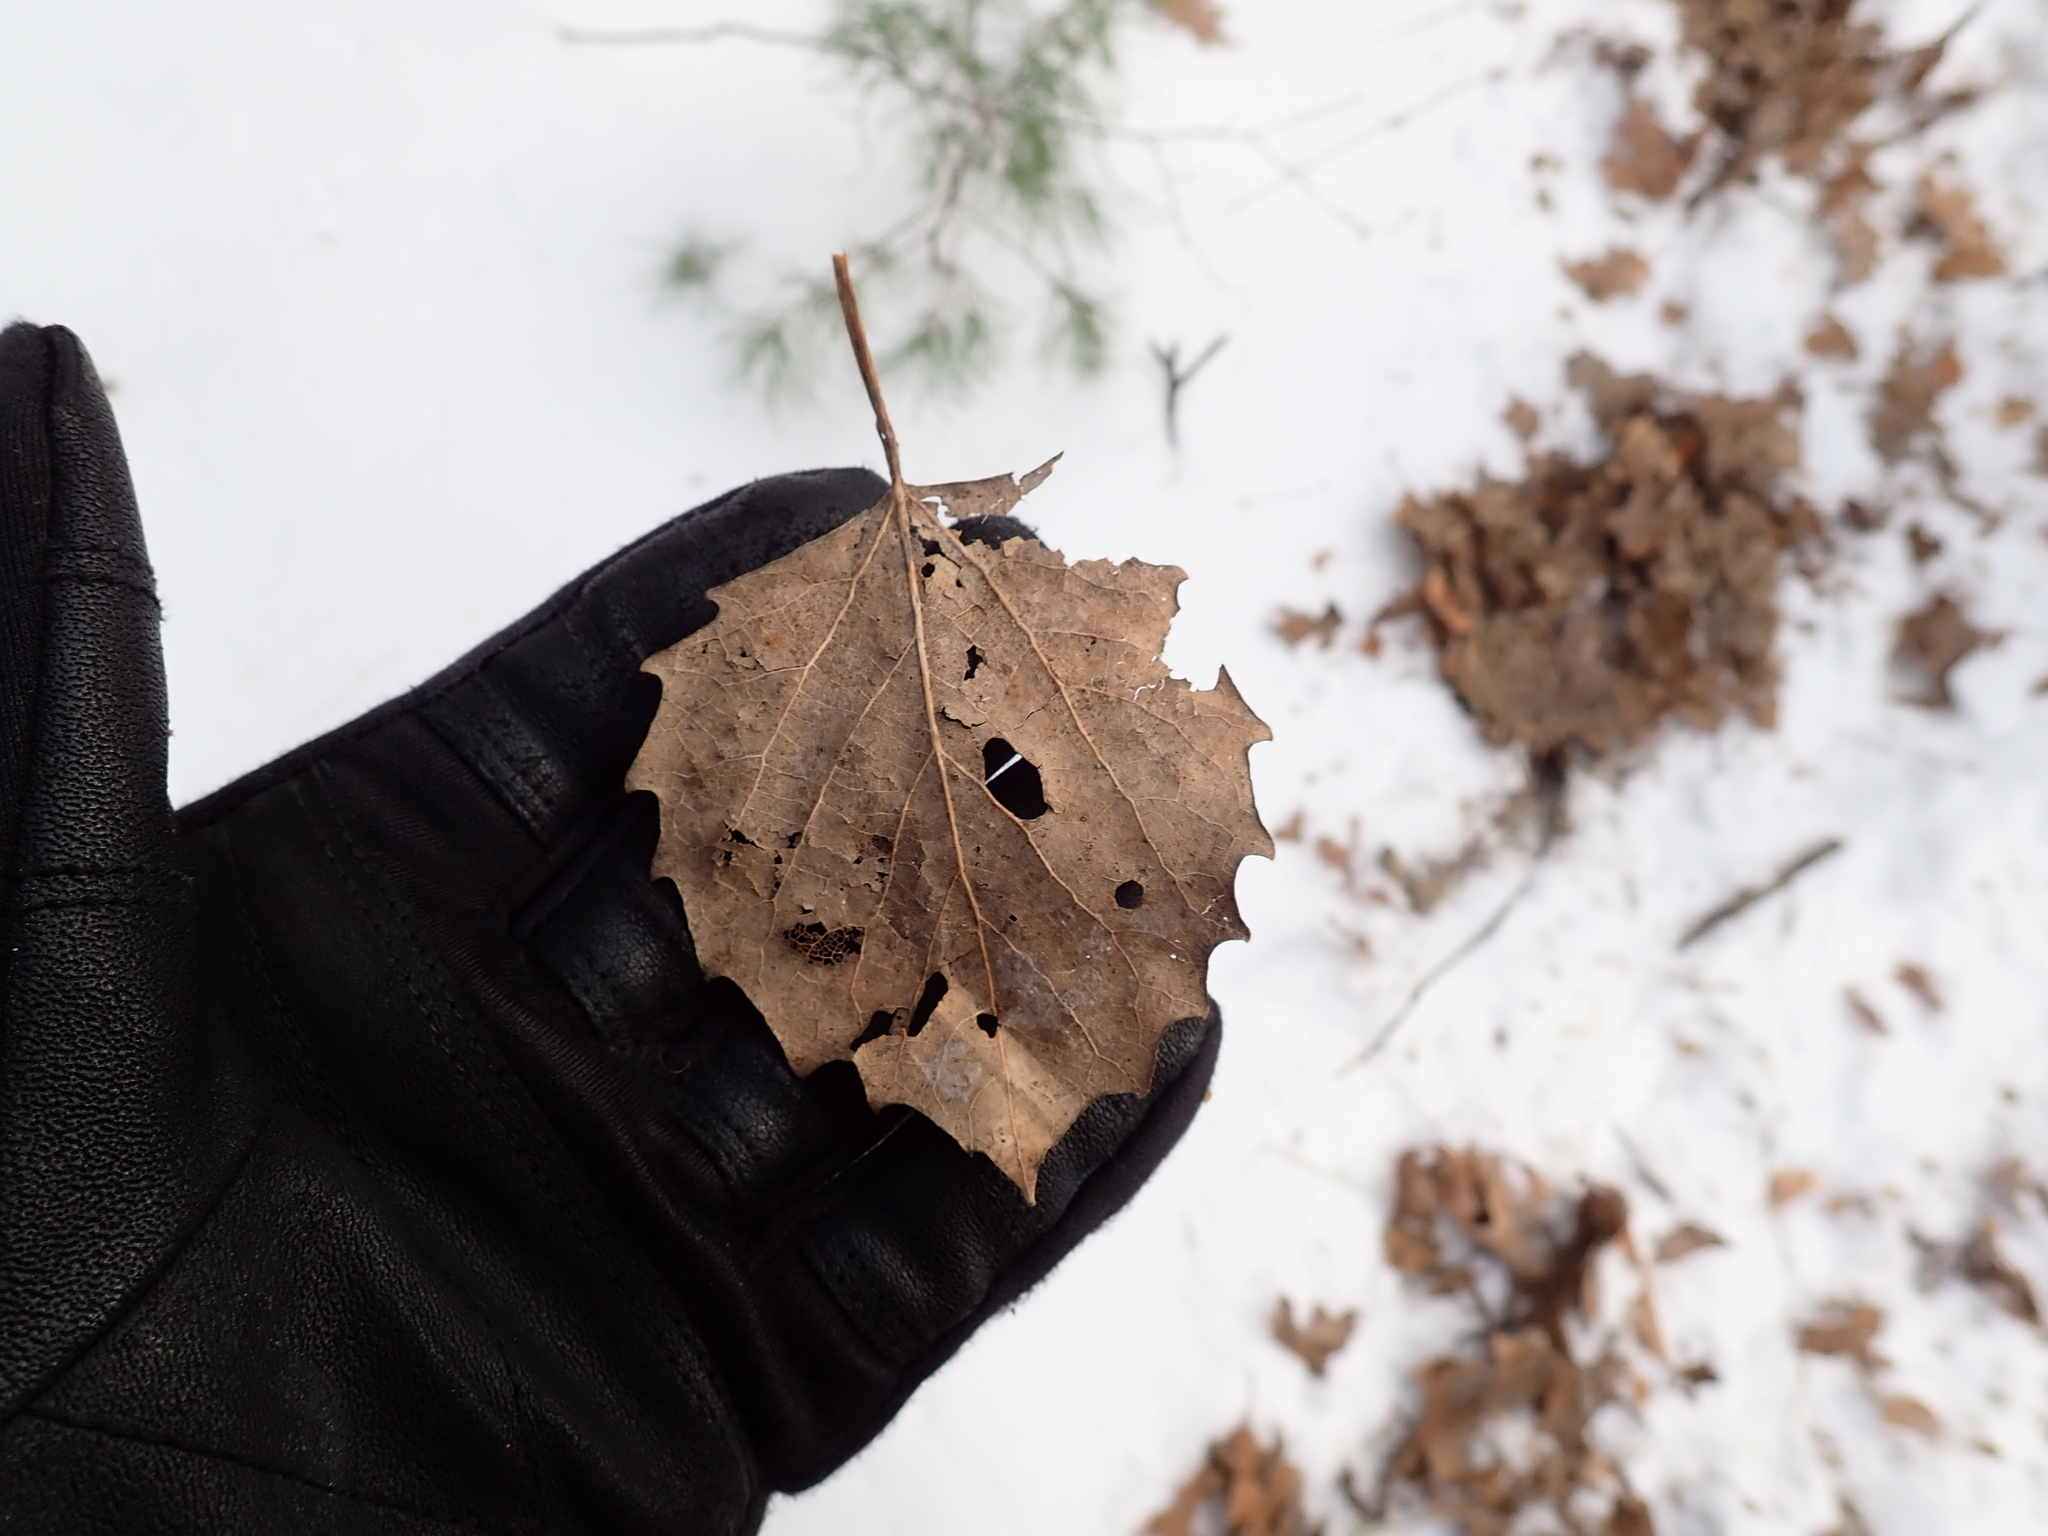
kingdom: Plantae
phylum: Tracheophyta
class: Magnoliopsida
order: Malpighiales
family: Salicaceae
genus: Populus
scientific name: Populus grandidentata
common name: Bigtooth aspen
